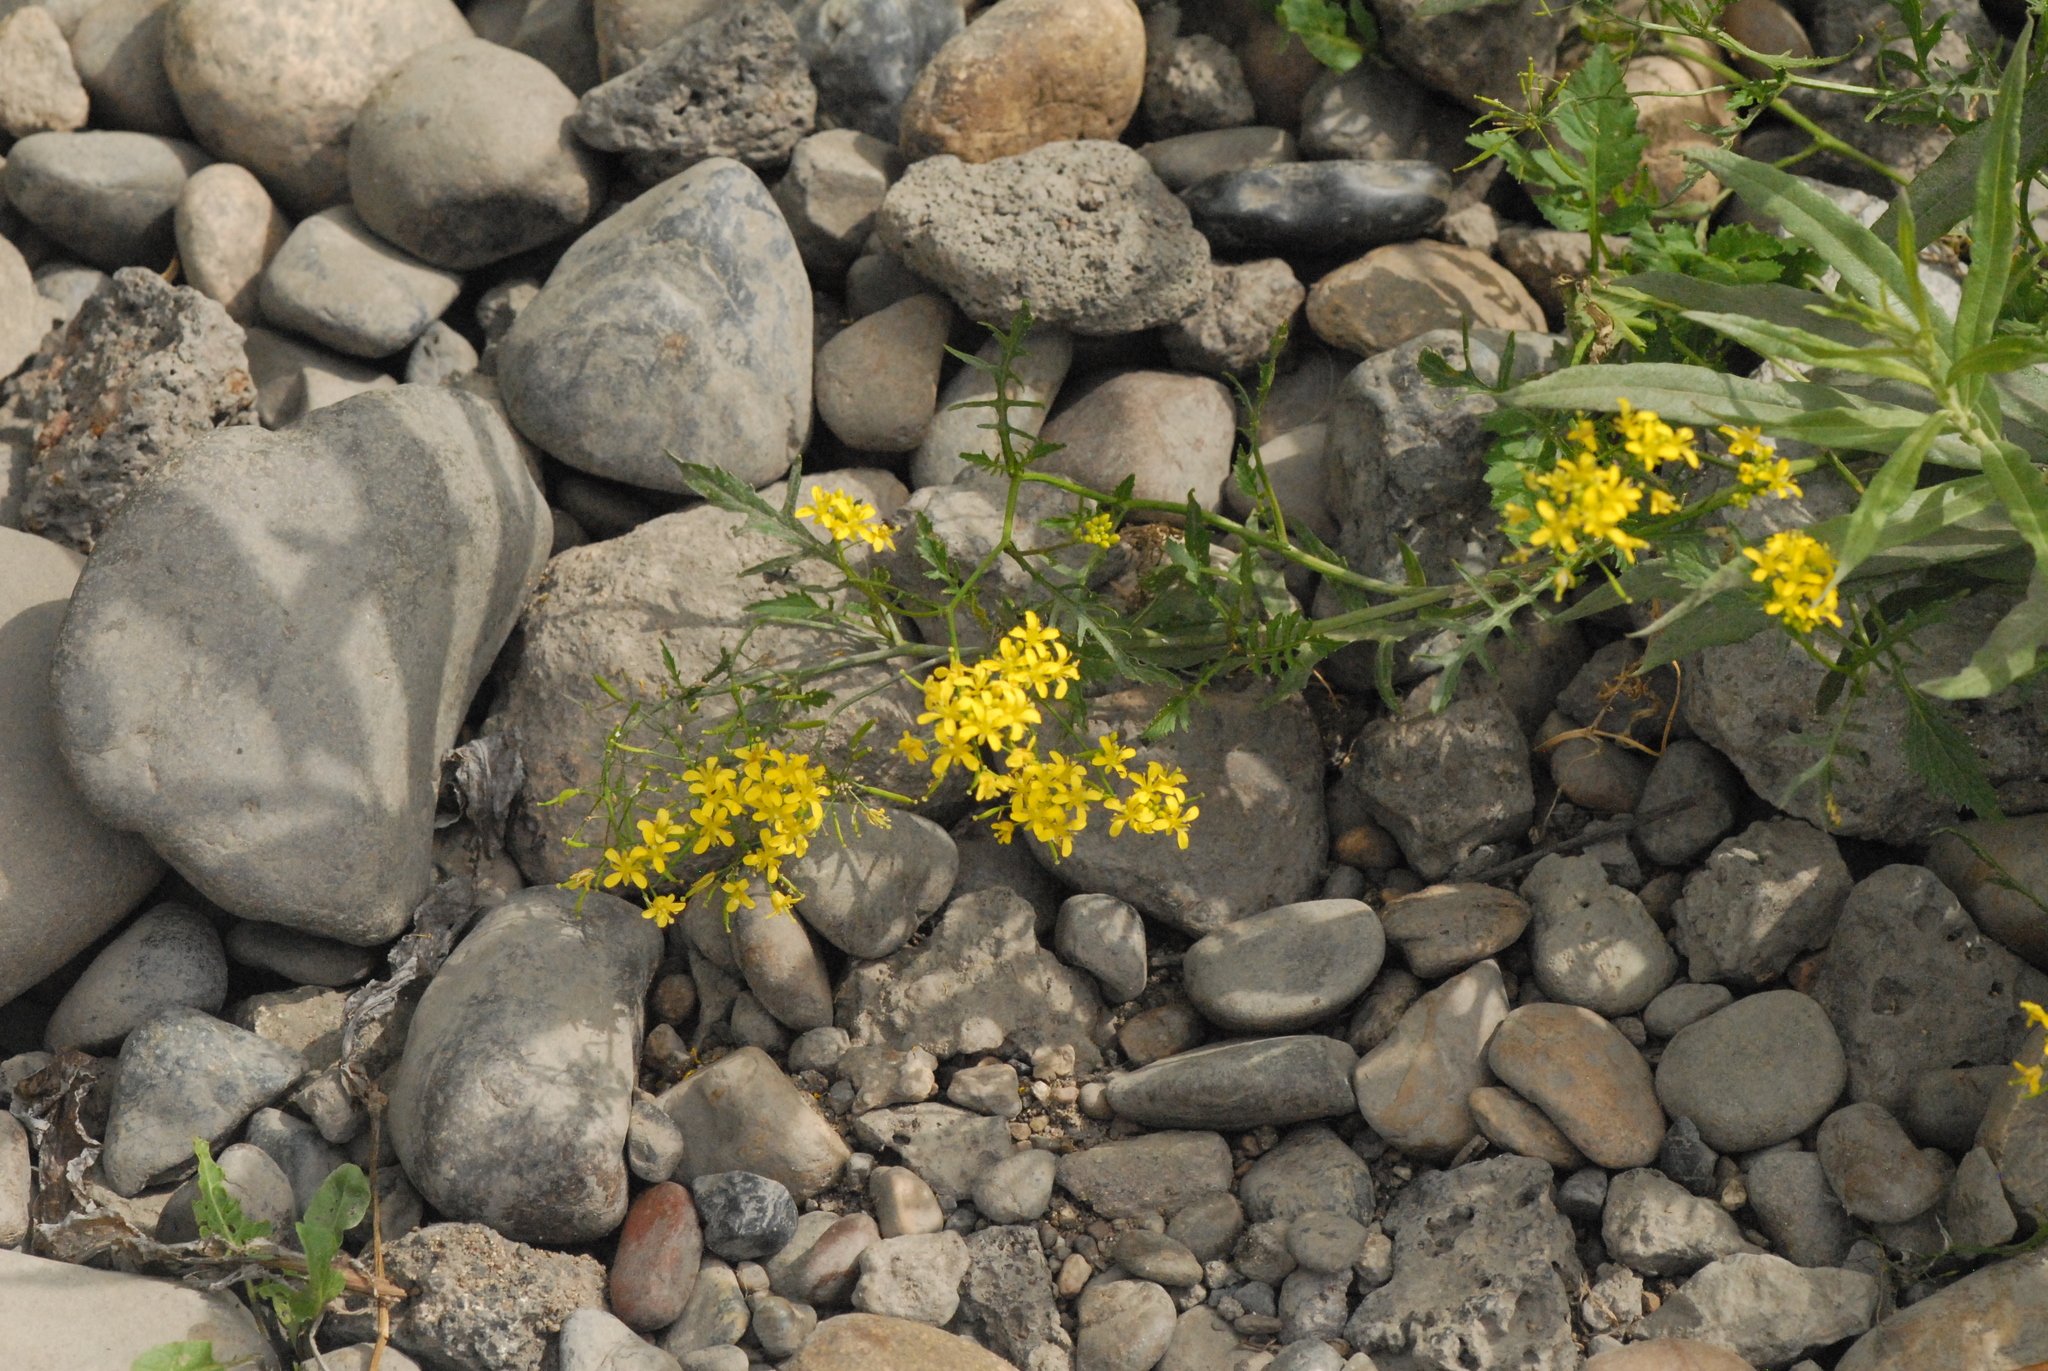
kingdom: Plantae
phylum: Tracheophyta
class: Magnoliopsida
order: Brassicales
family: Brassicaceae
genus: Rorippa
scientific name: Rorippa sylvestris
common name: Creeping yellowcress
